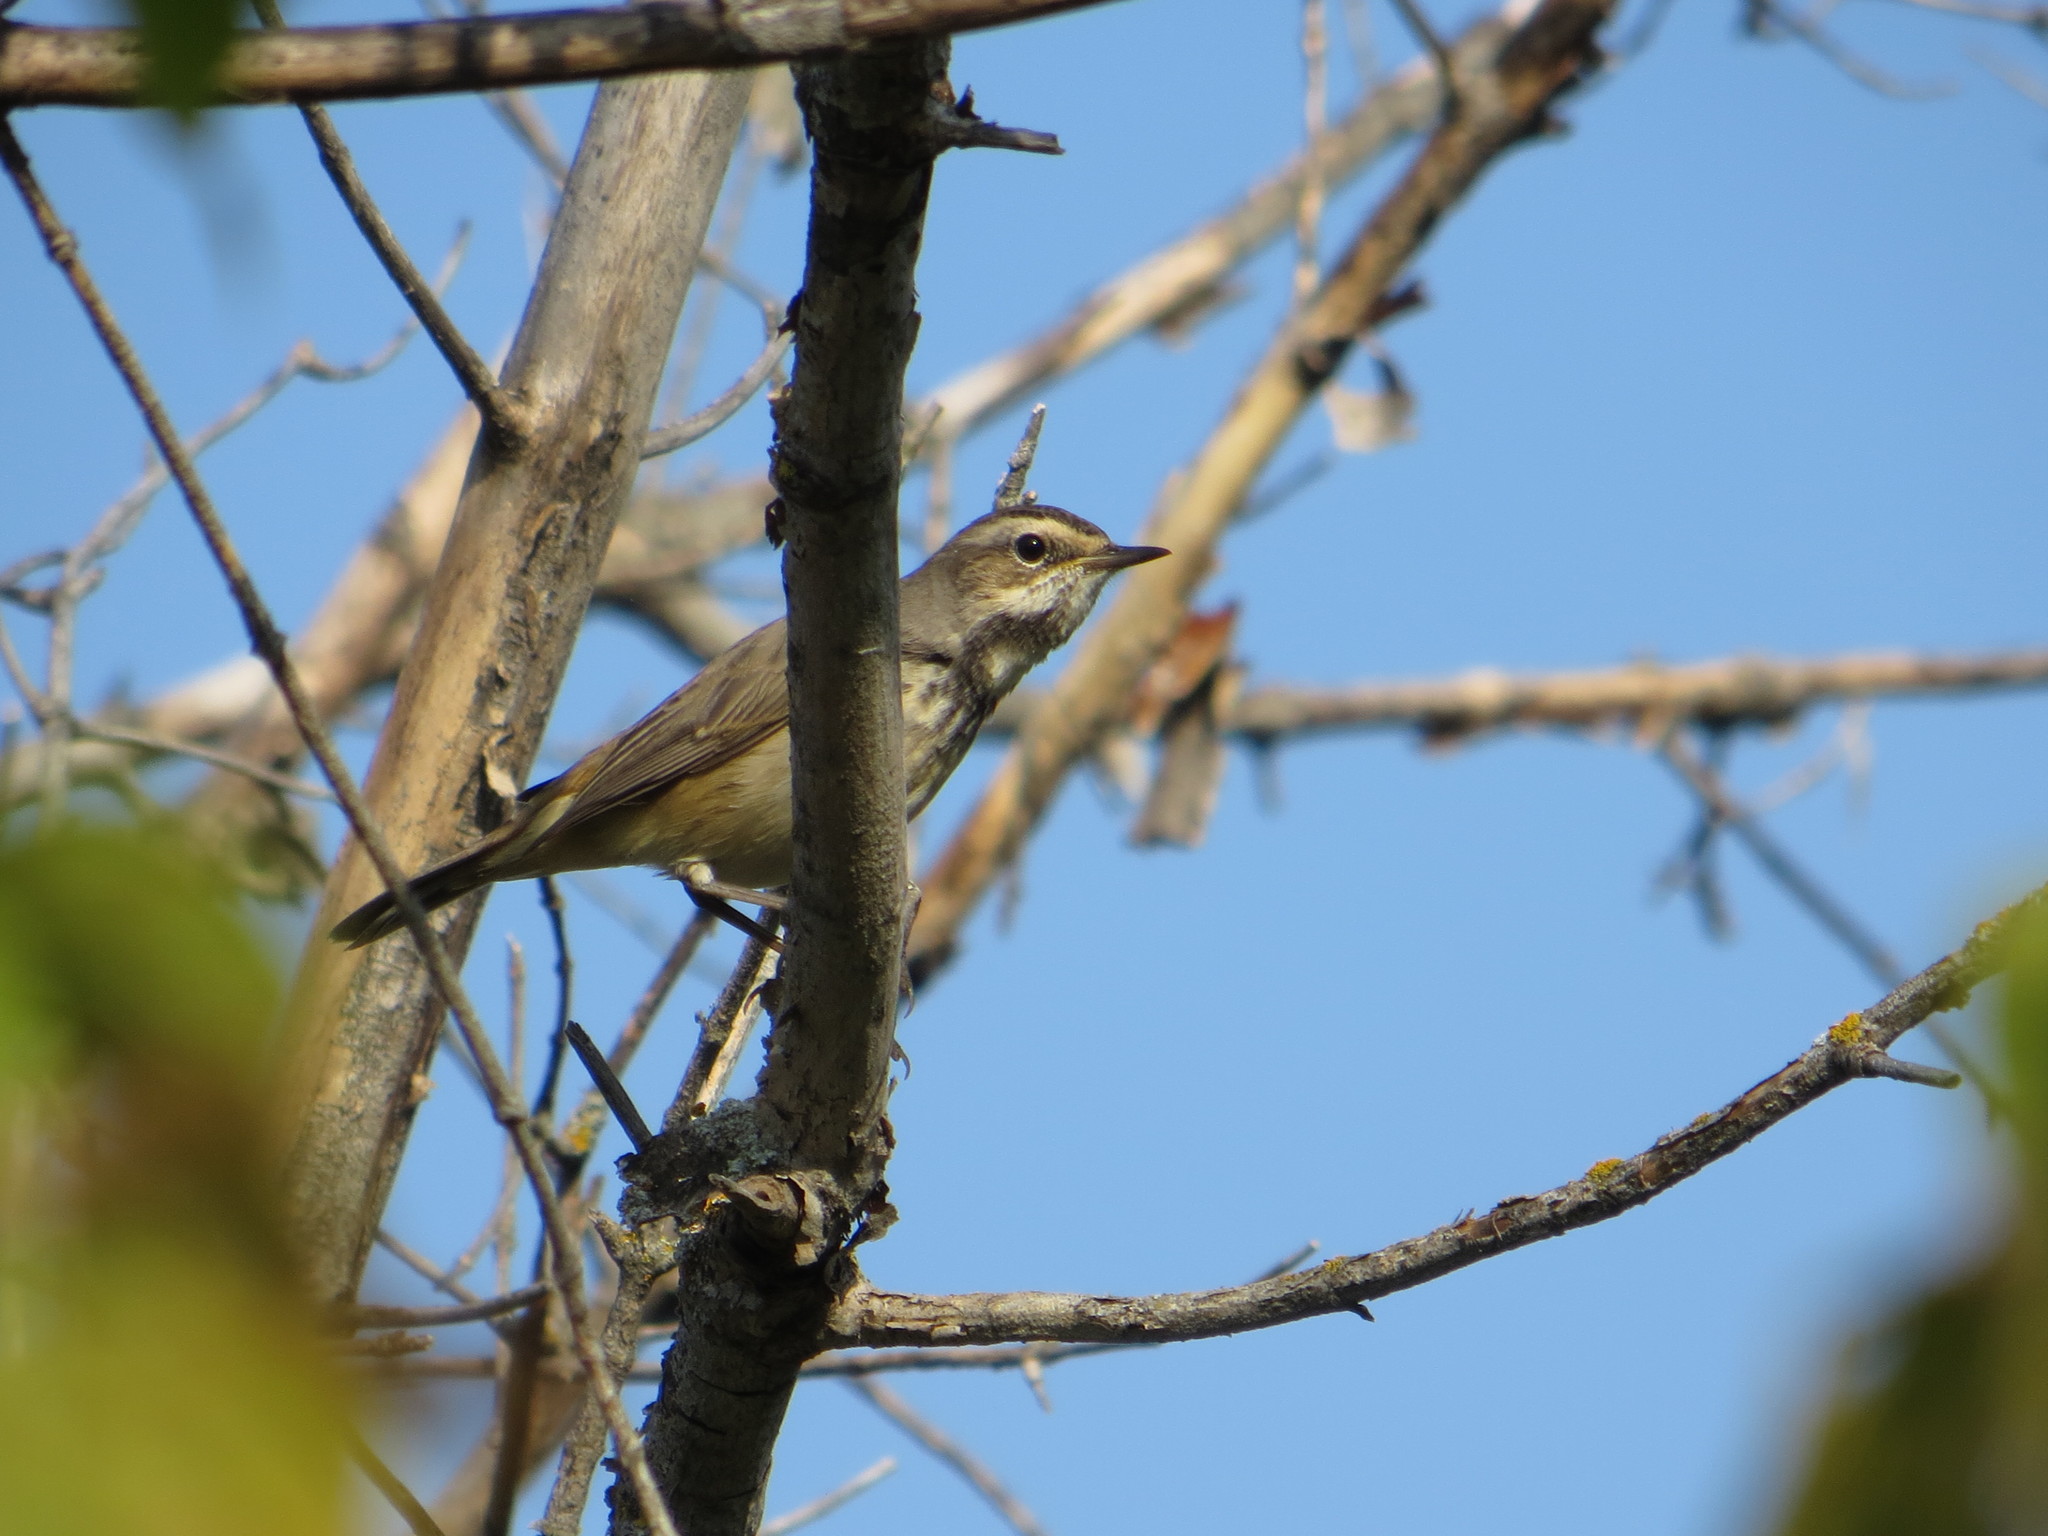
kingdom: Animalia
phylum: Chordata
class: Aves
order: Passeriformes
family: Muscicapidae
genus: Luscinia
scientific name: Luscinia svecica
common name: Bluethroat
